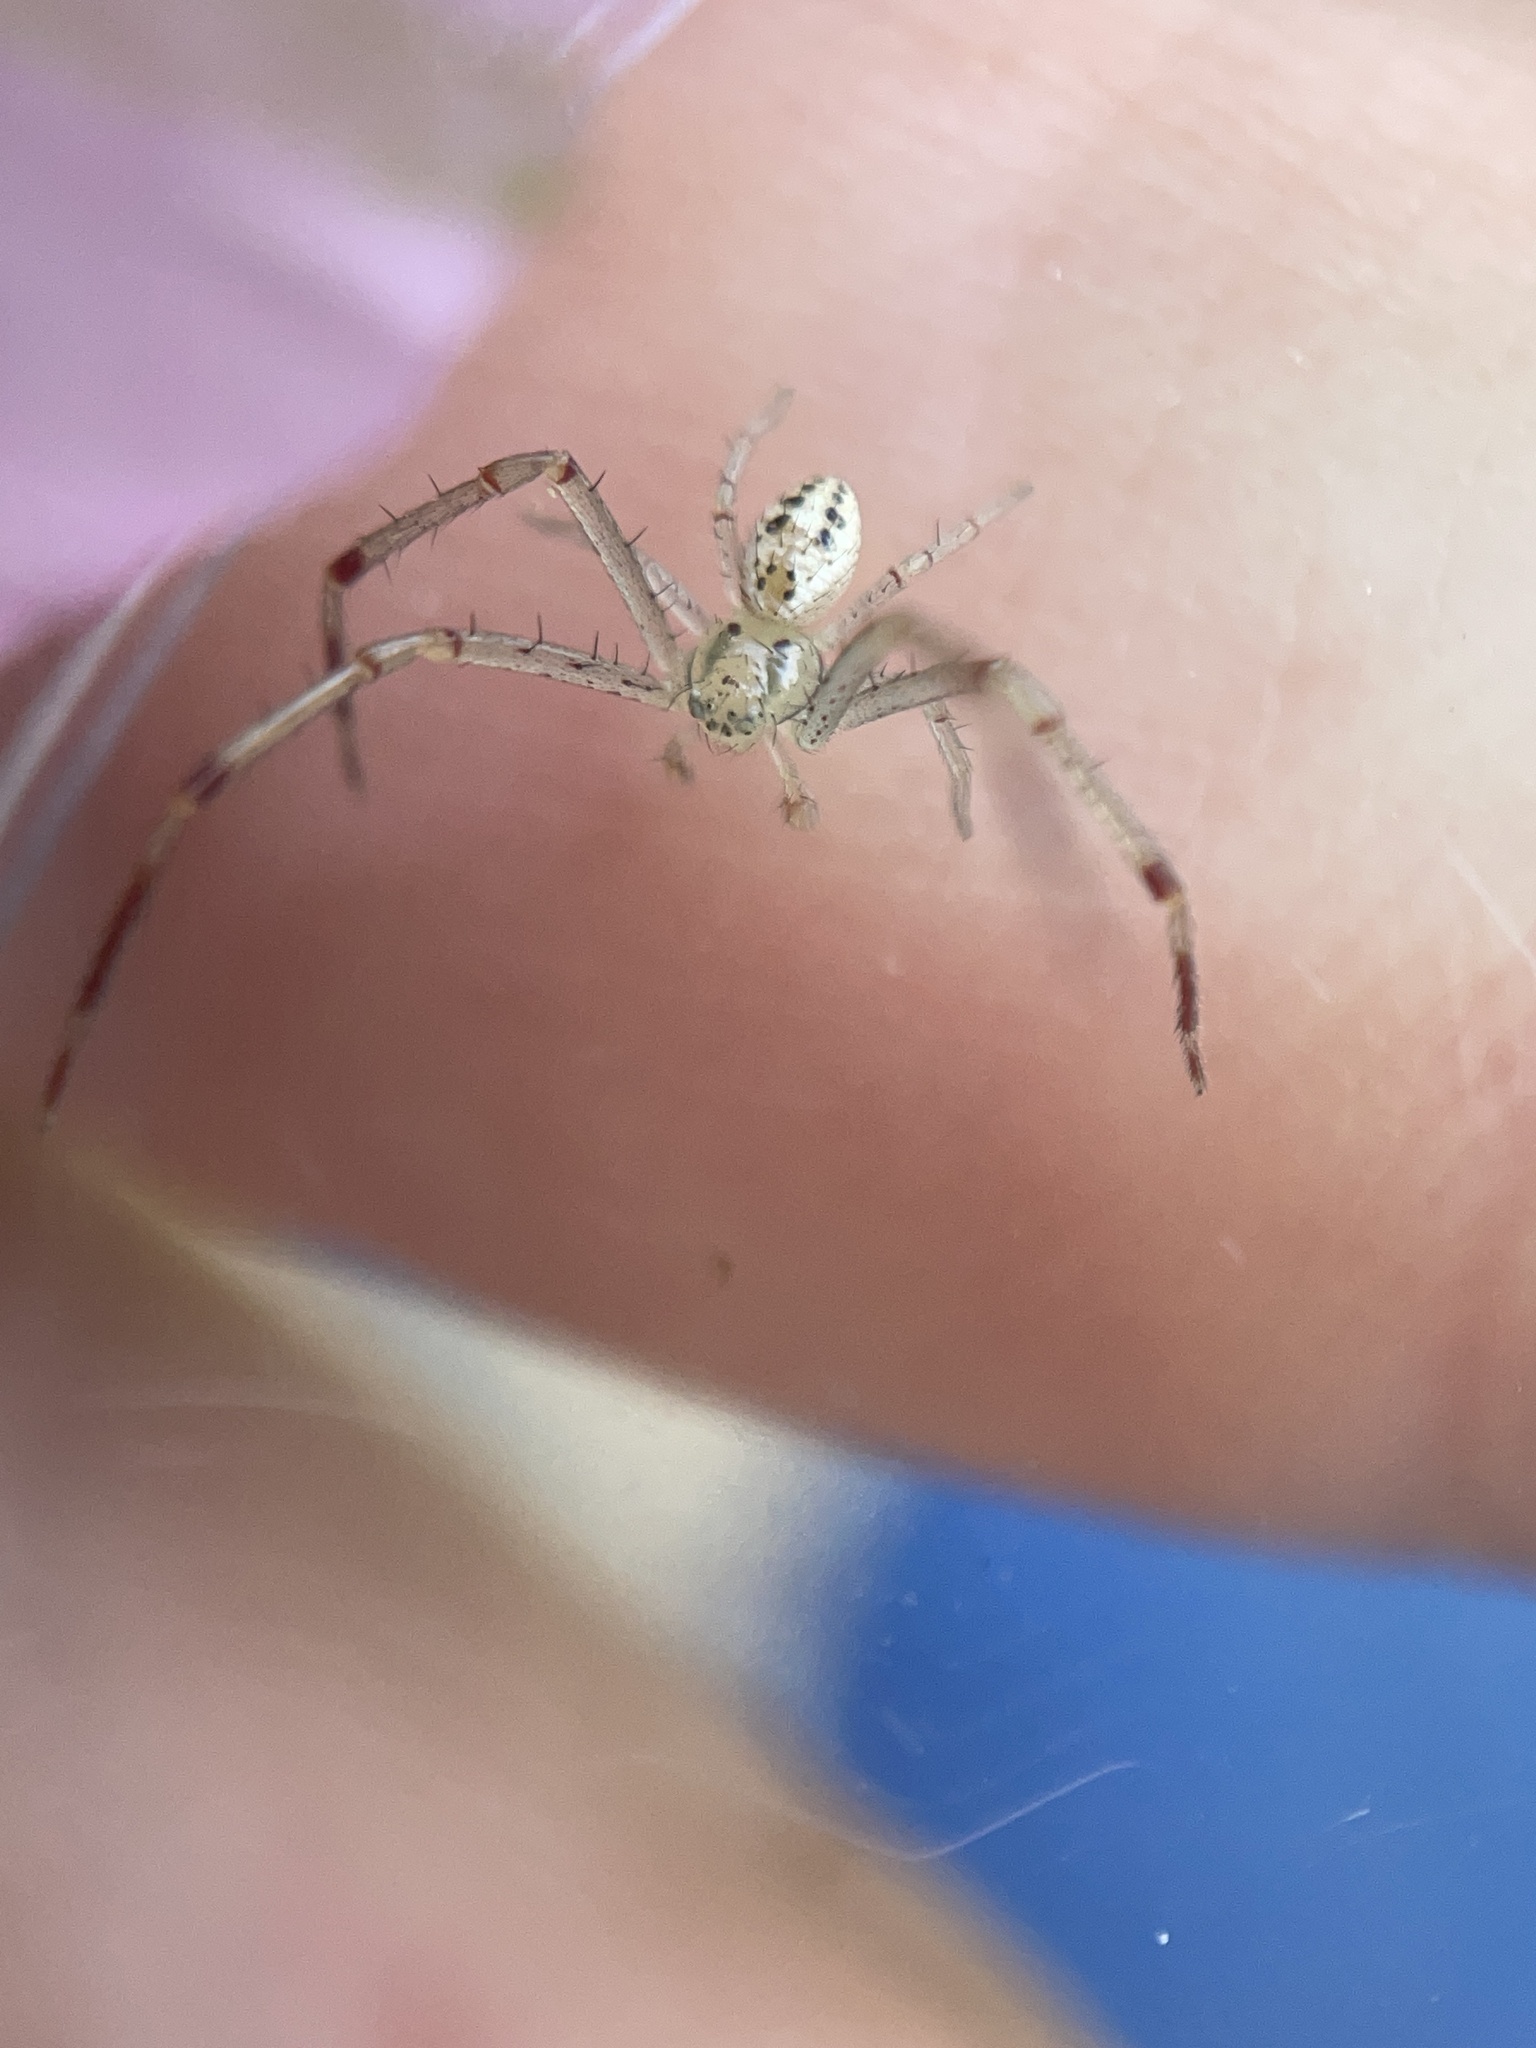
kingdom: Animalia
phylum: Arthropoda
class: Arachnida
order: Araneae
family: Thomisidae
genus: Mecaphesa
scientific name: Mecaphesa celer
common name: Crab spiders
